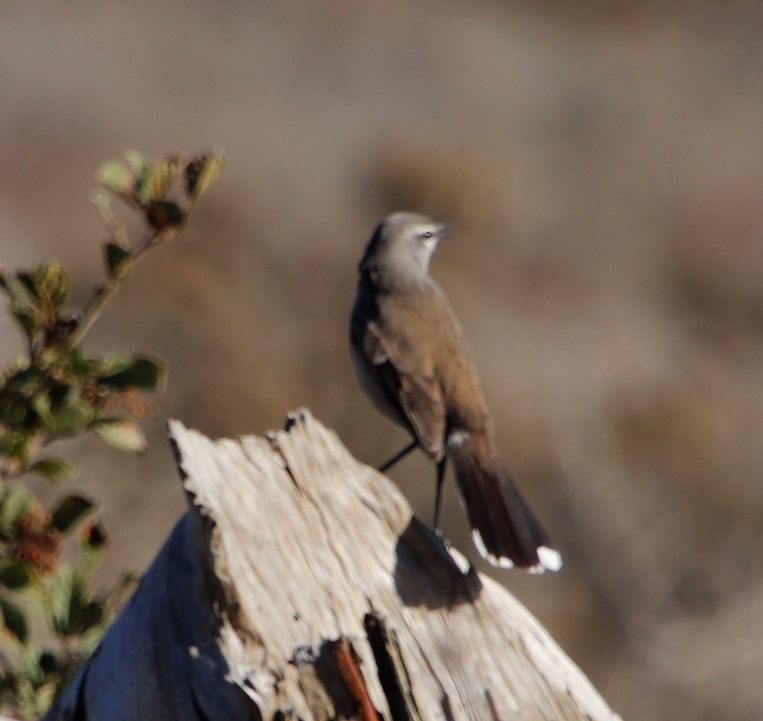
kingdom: Animalia
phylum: Chordata
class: Aves
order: Passeriformes
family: Muscicapidae
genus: Erythropygia
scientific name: Erythropygia coryphoeus
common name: Karoo scrub robin
